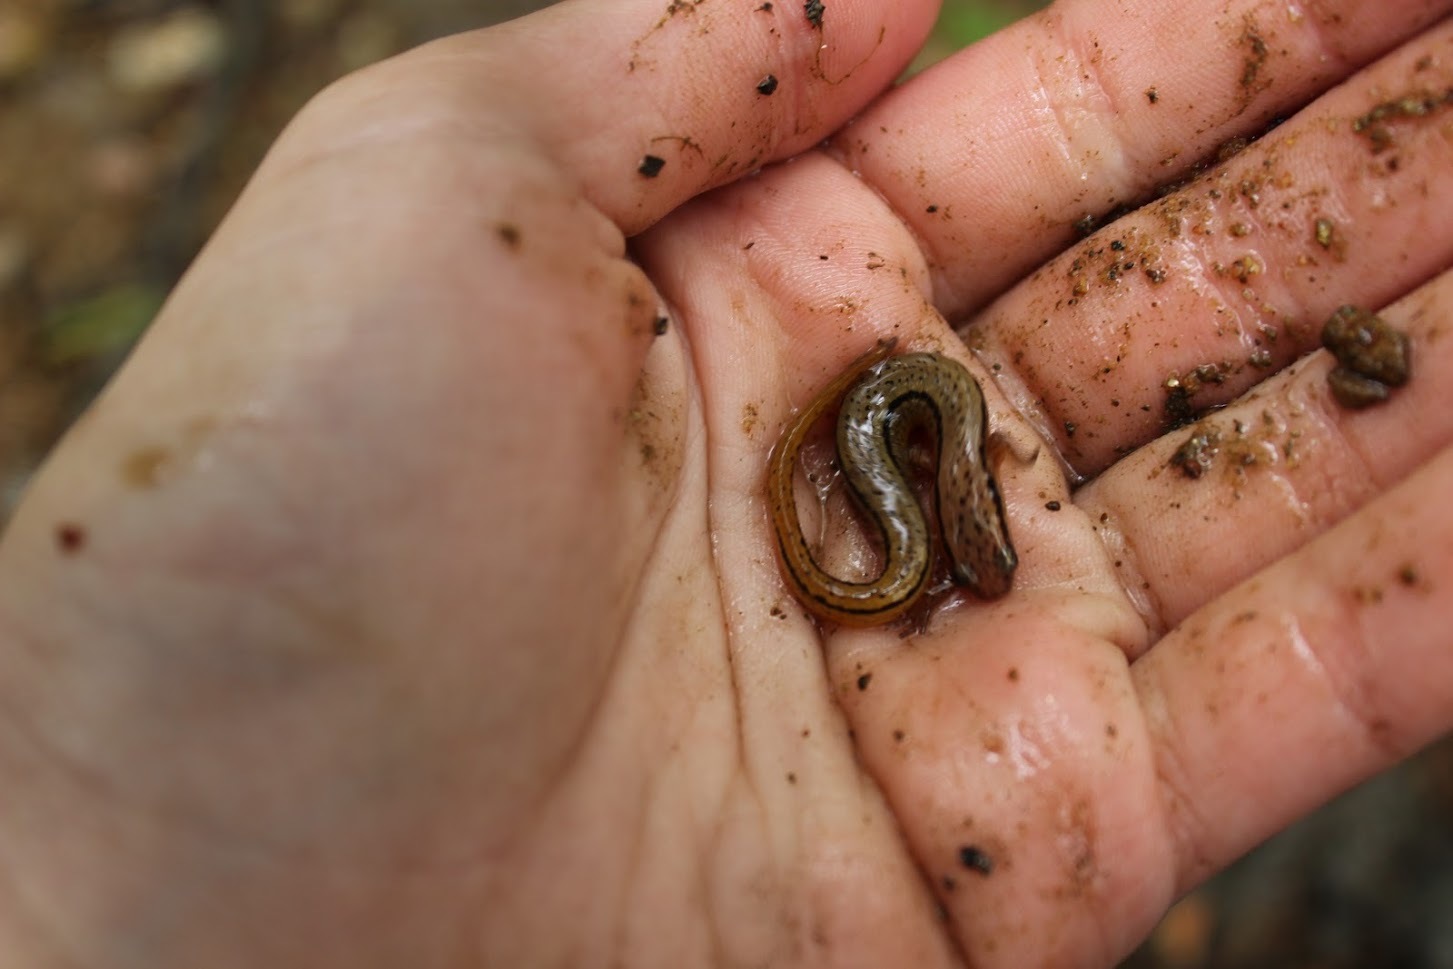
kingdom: Animalia
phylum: Chordata
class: Amphibia
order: Caudata
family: Plethodontidae
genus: Eurycea
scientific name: Eurycea wilderae
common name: Blue ridge two-lined salamander
